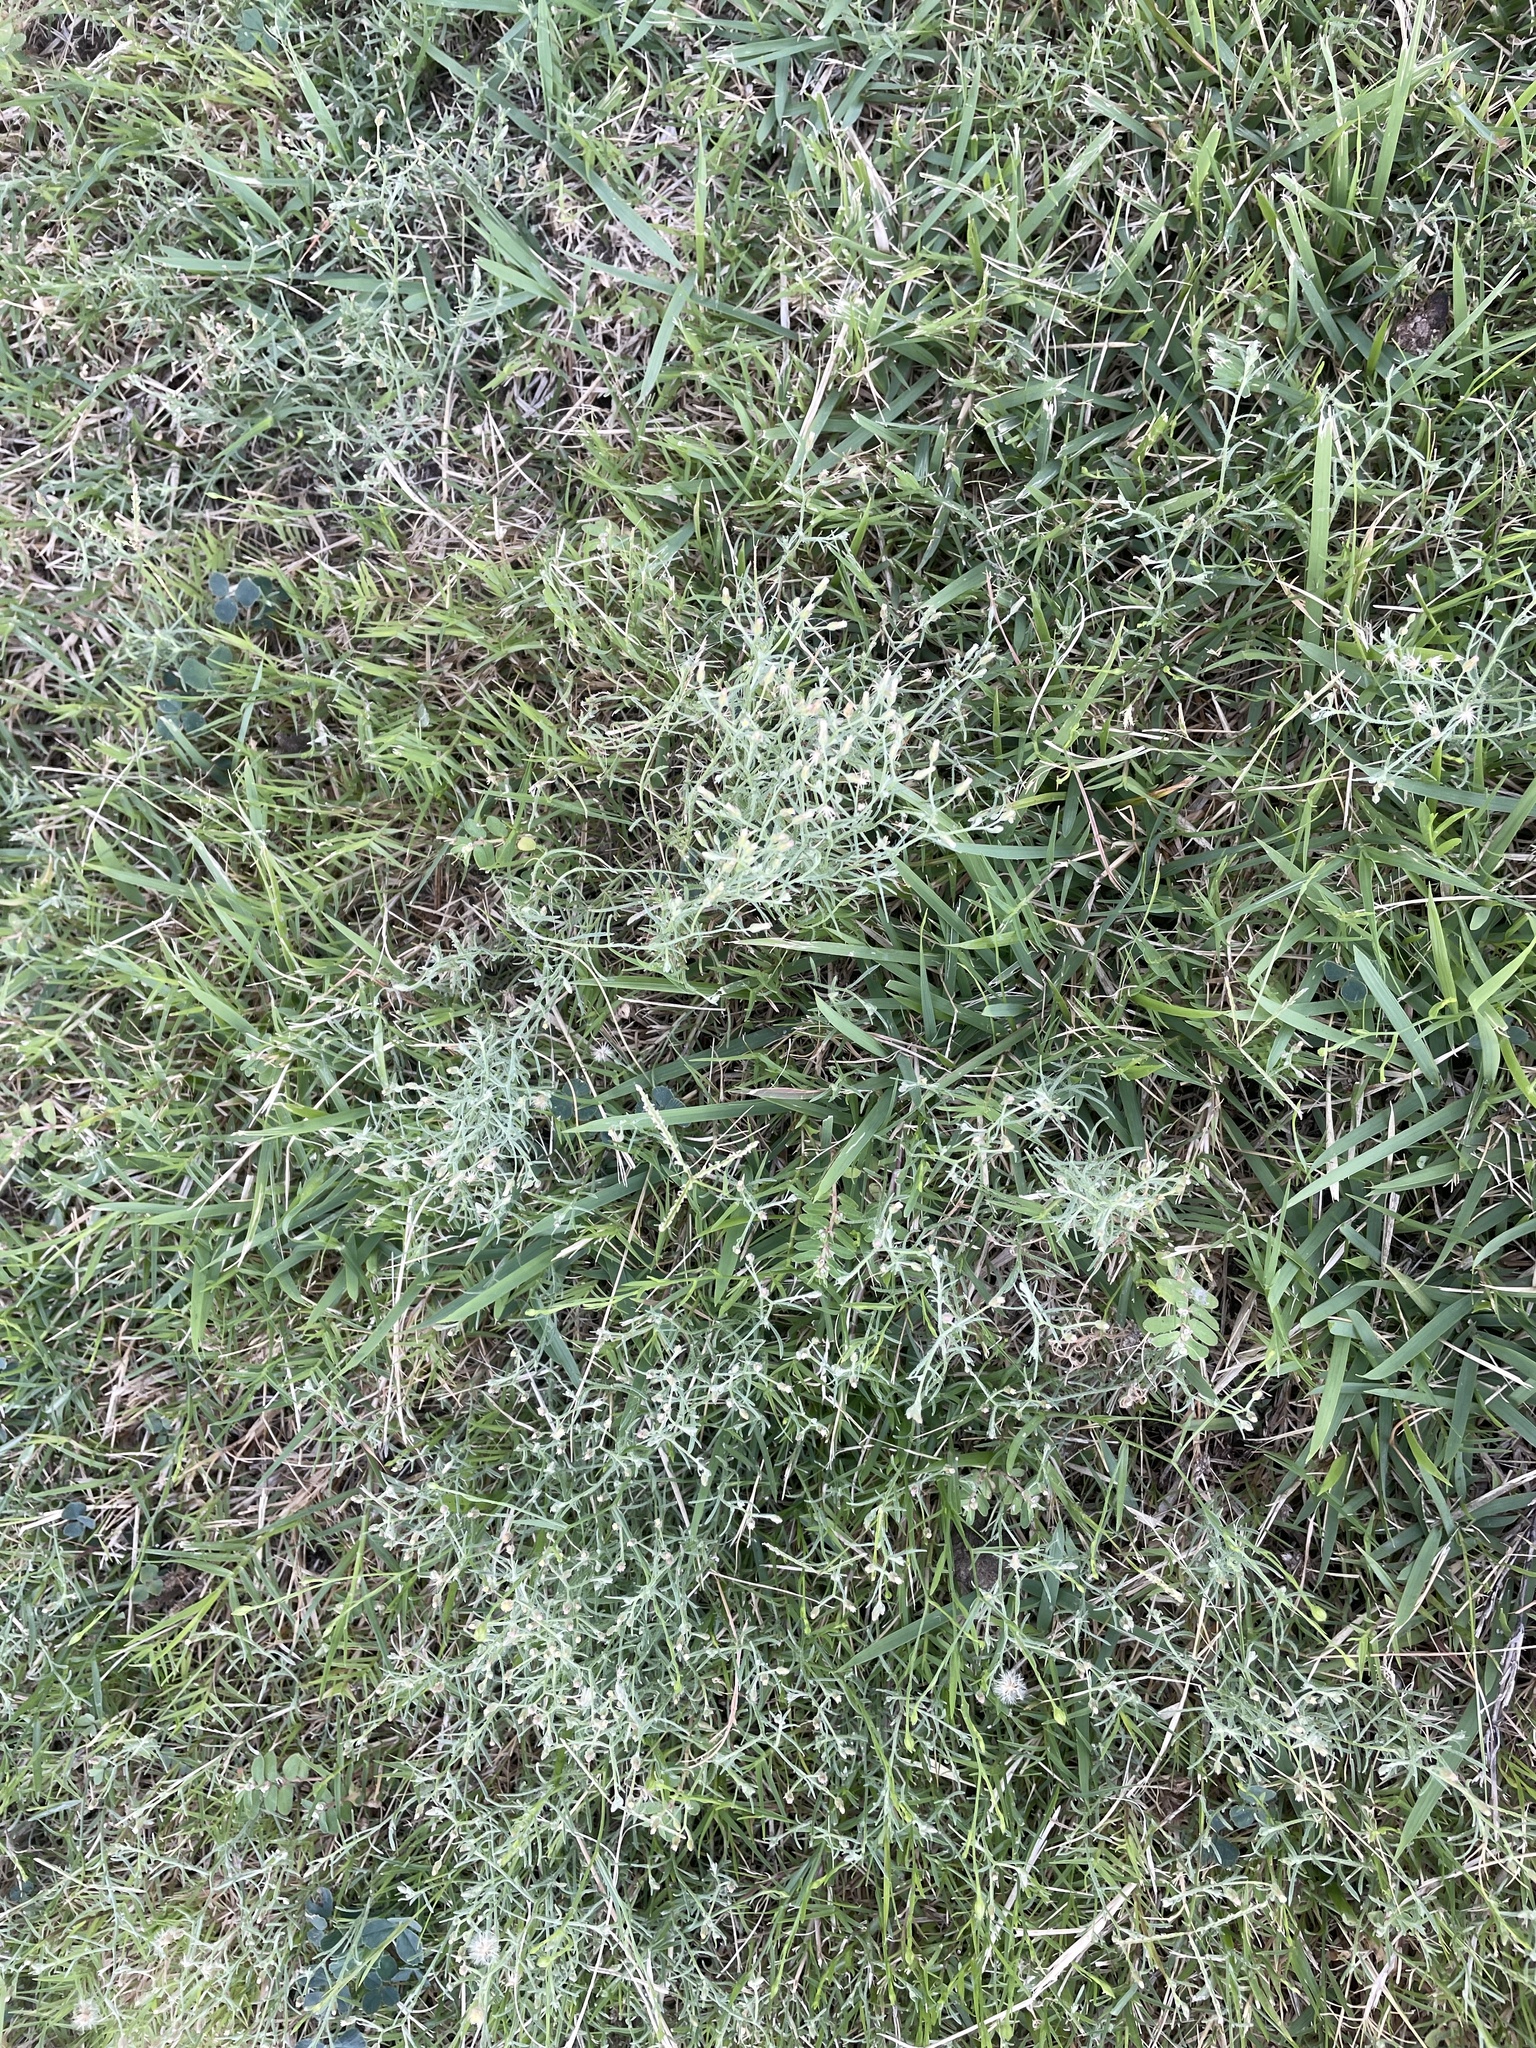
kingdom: Plantae
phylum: Tracheophyta
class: Magnoliopsida
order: Asterales
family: Asteraceae
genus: Erigeron
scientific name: Erigeron divaricatus
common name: Dwarf conyza
